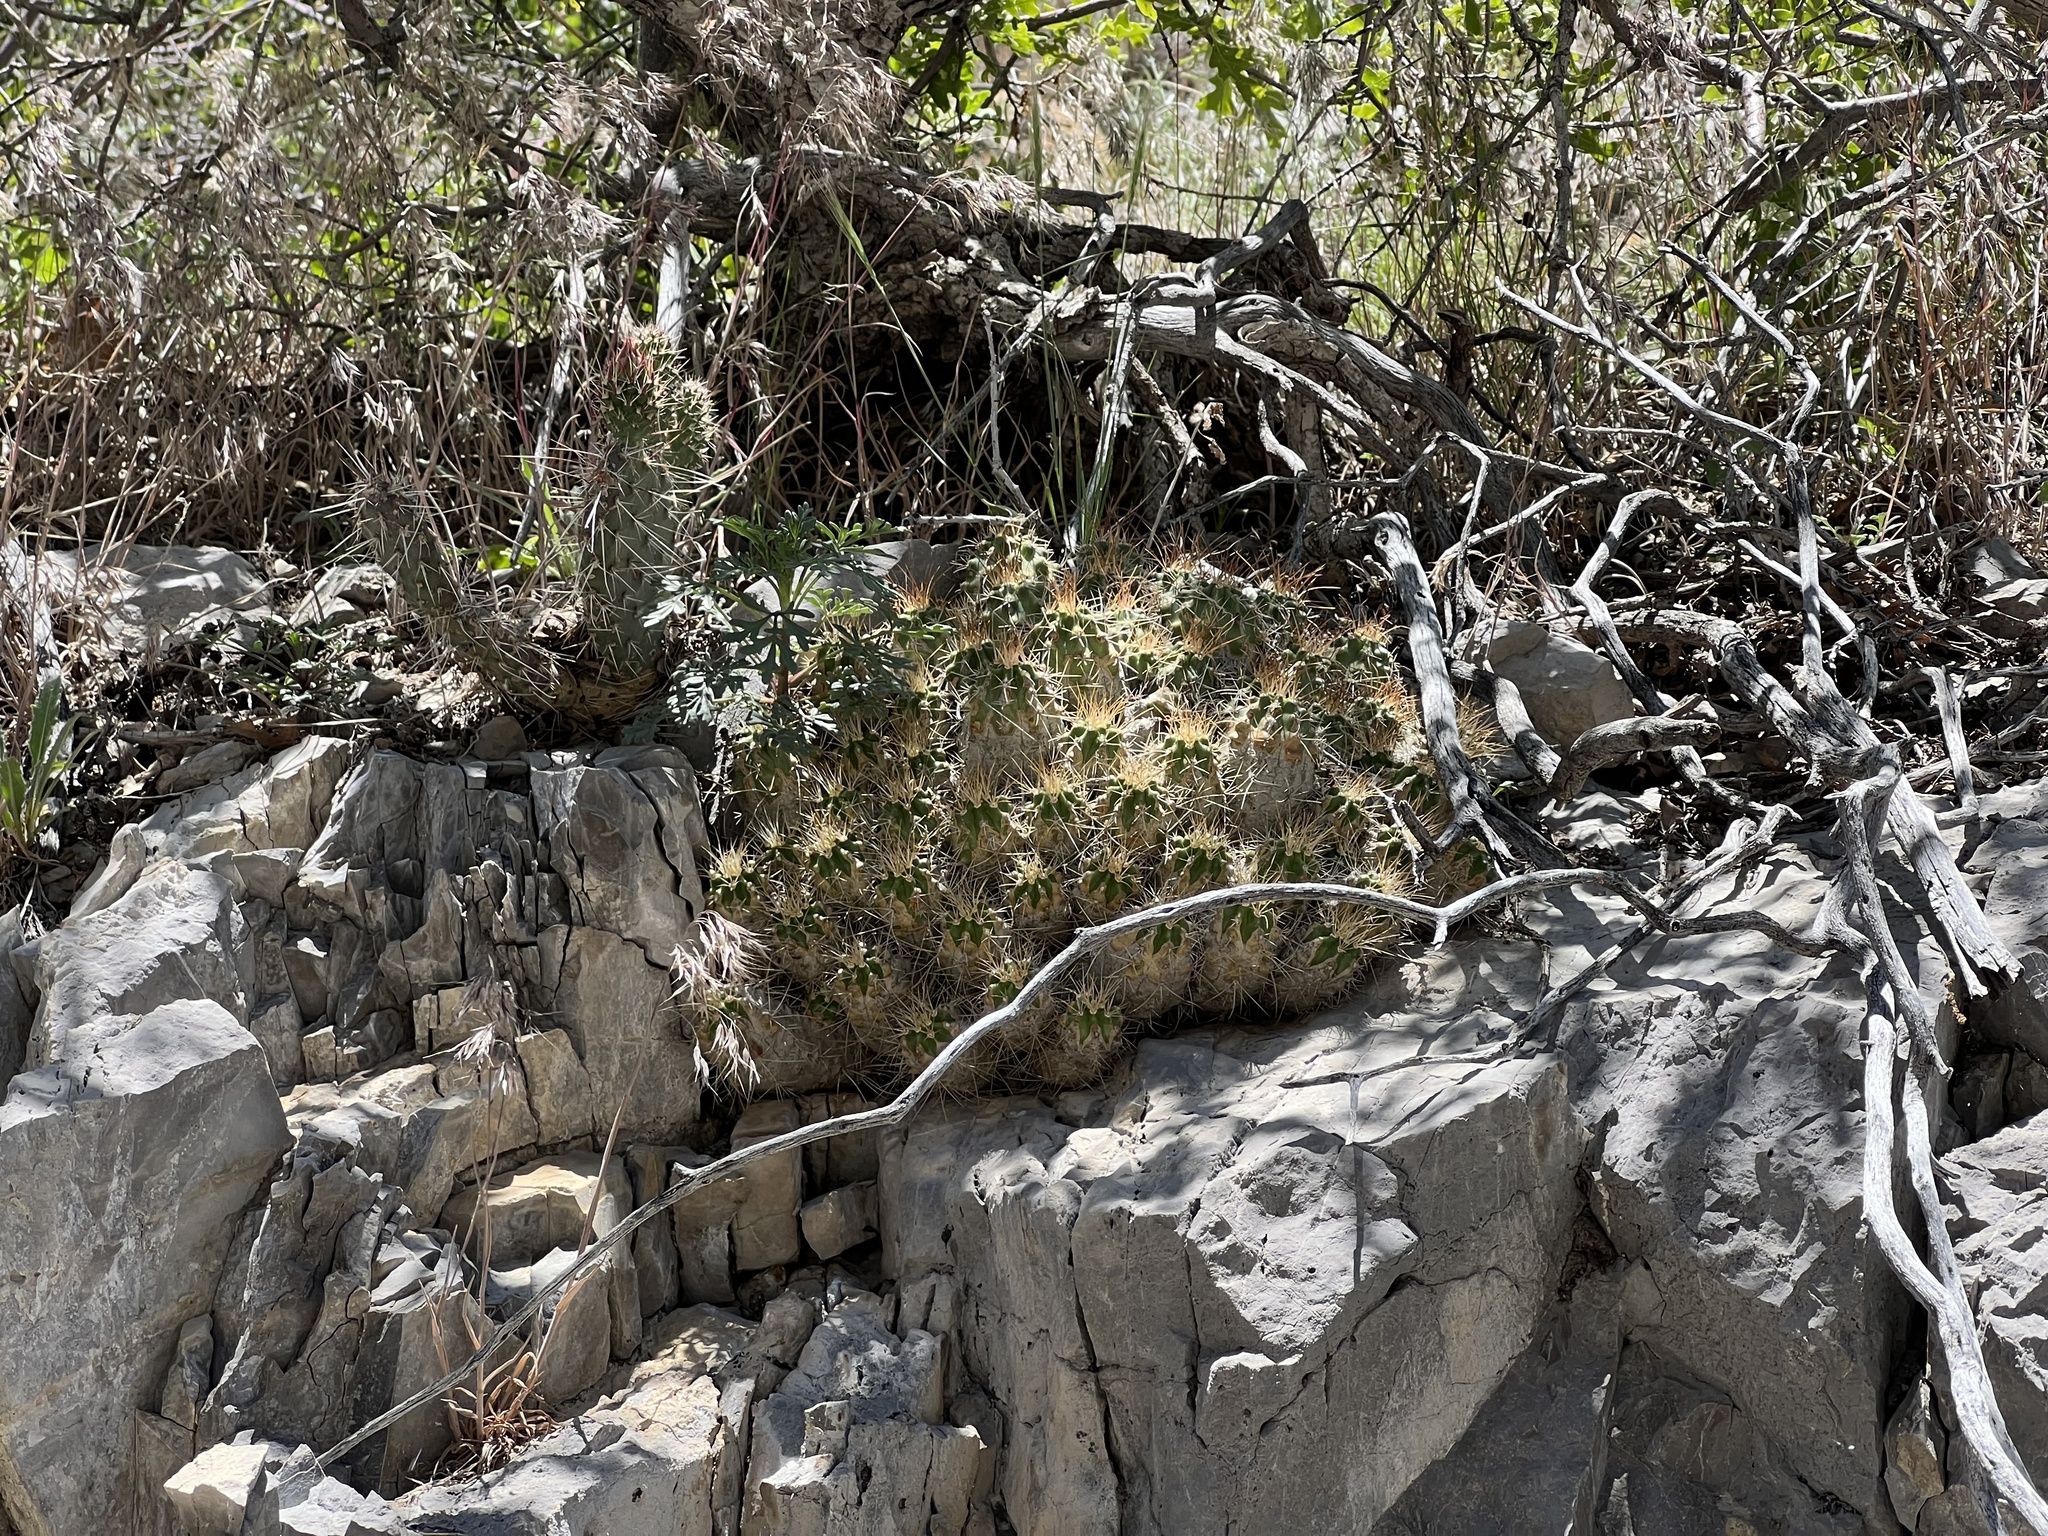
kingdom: Plantae
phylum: Tracheophyta
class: Magnoliopsida
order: Caryophyllales
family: Cactaceae
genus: Echinocereus
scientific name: Echinocereus triglochidiatus
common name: Claretcup hedgehog
